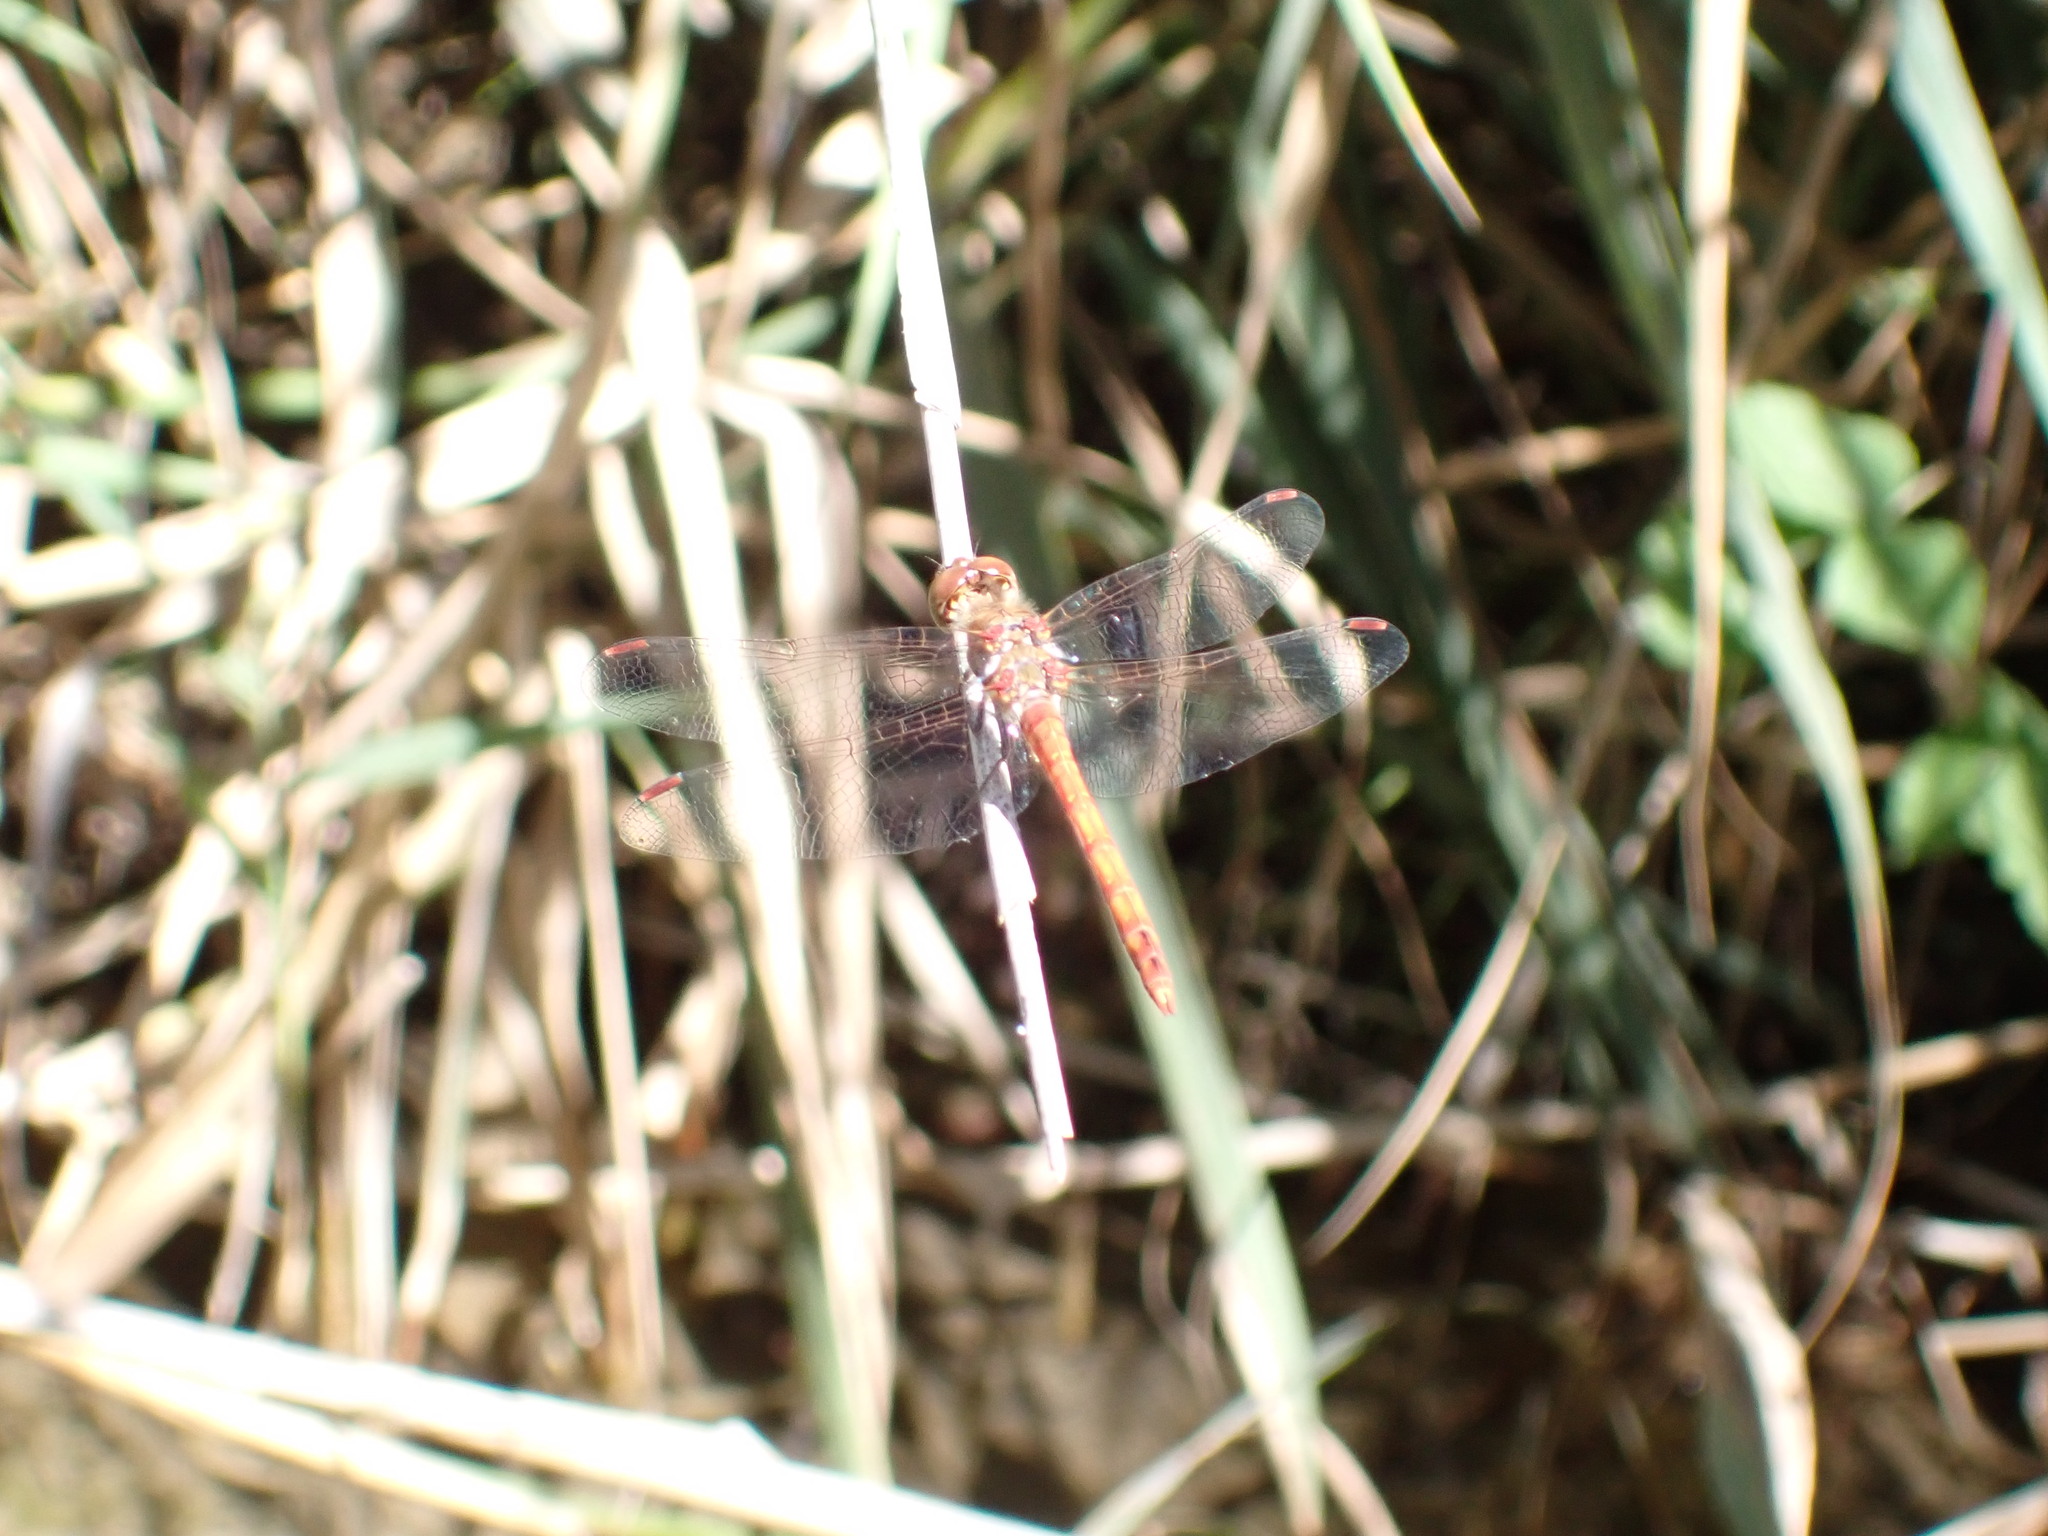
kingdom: Animalia
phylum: Arthropoda
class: Insecta
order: Odonata
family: Libellulidae
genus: Sympetrum
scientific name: Sympetrum striolatum
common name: Common darter
